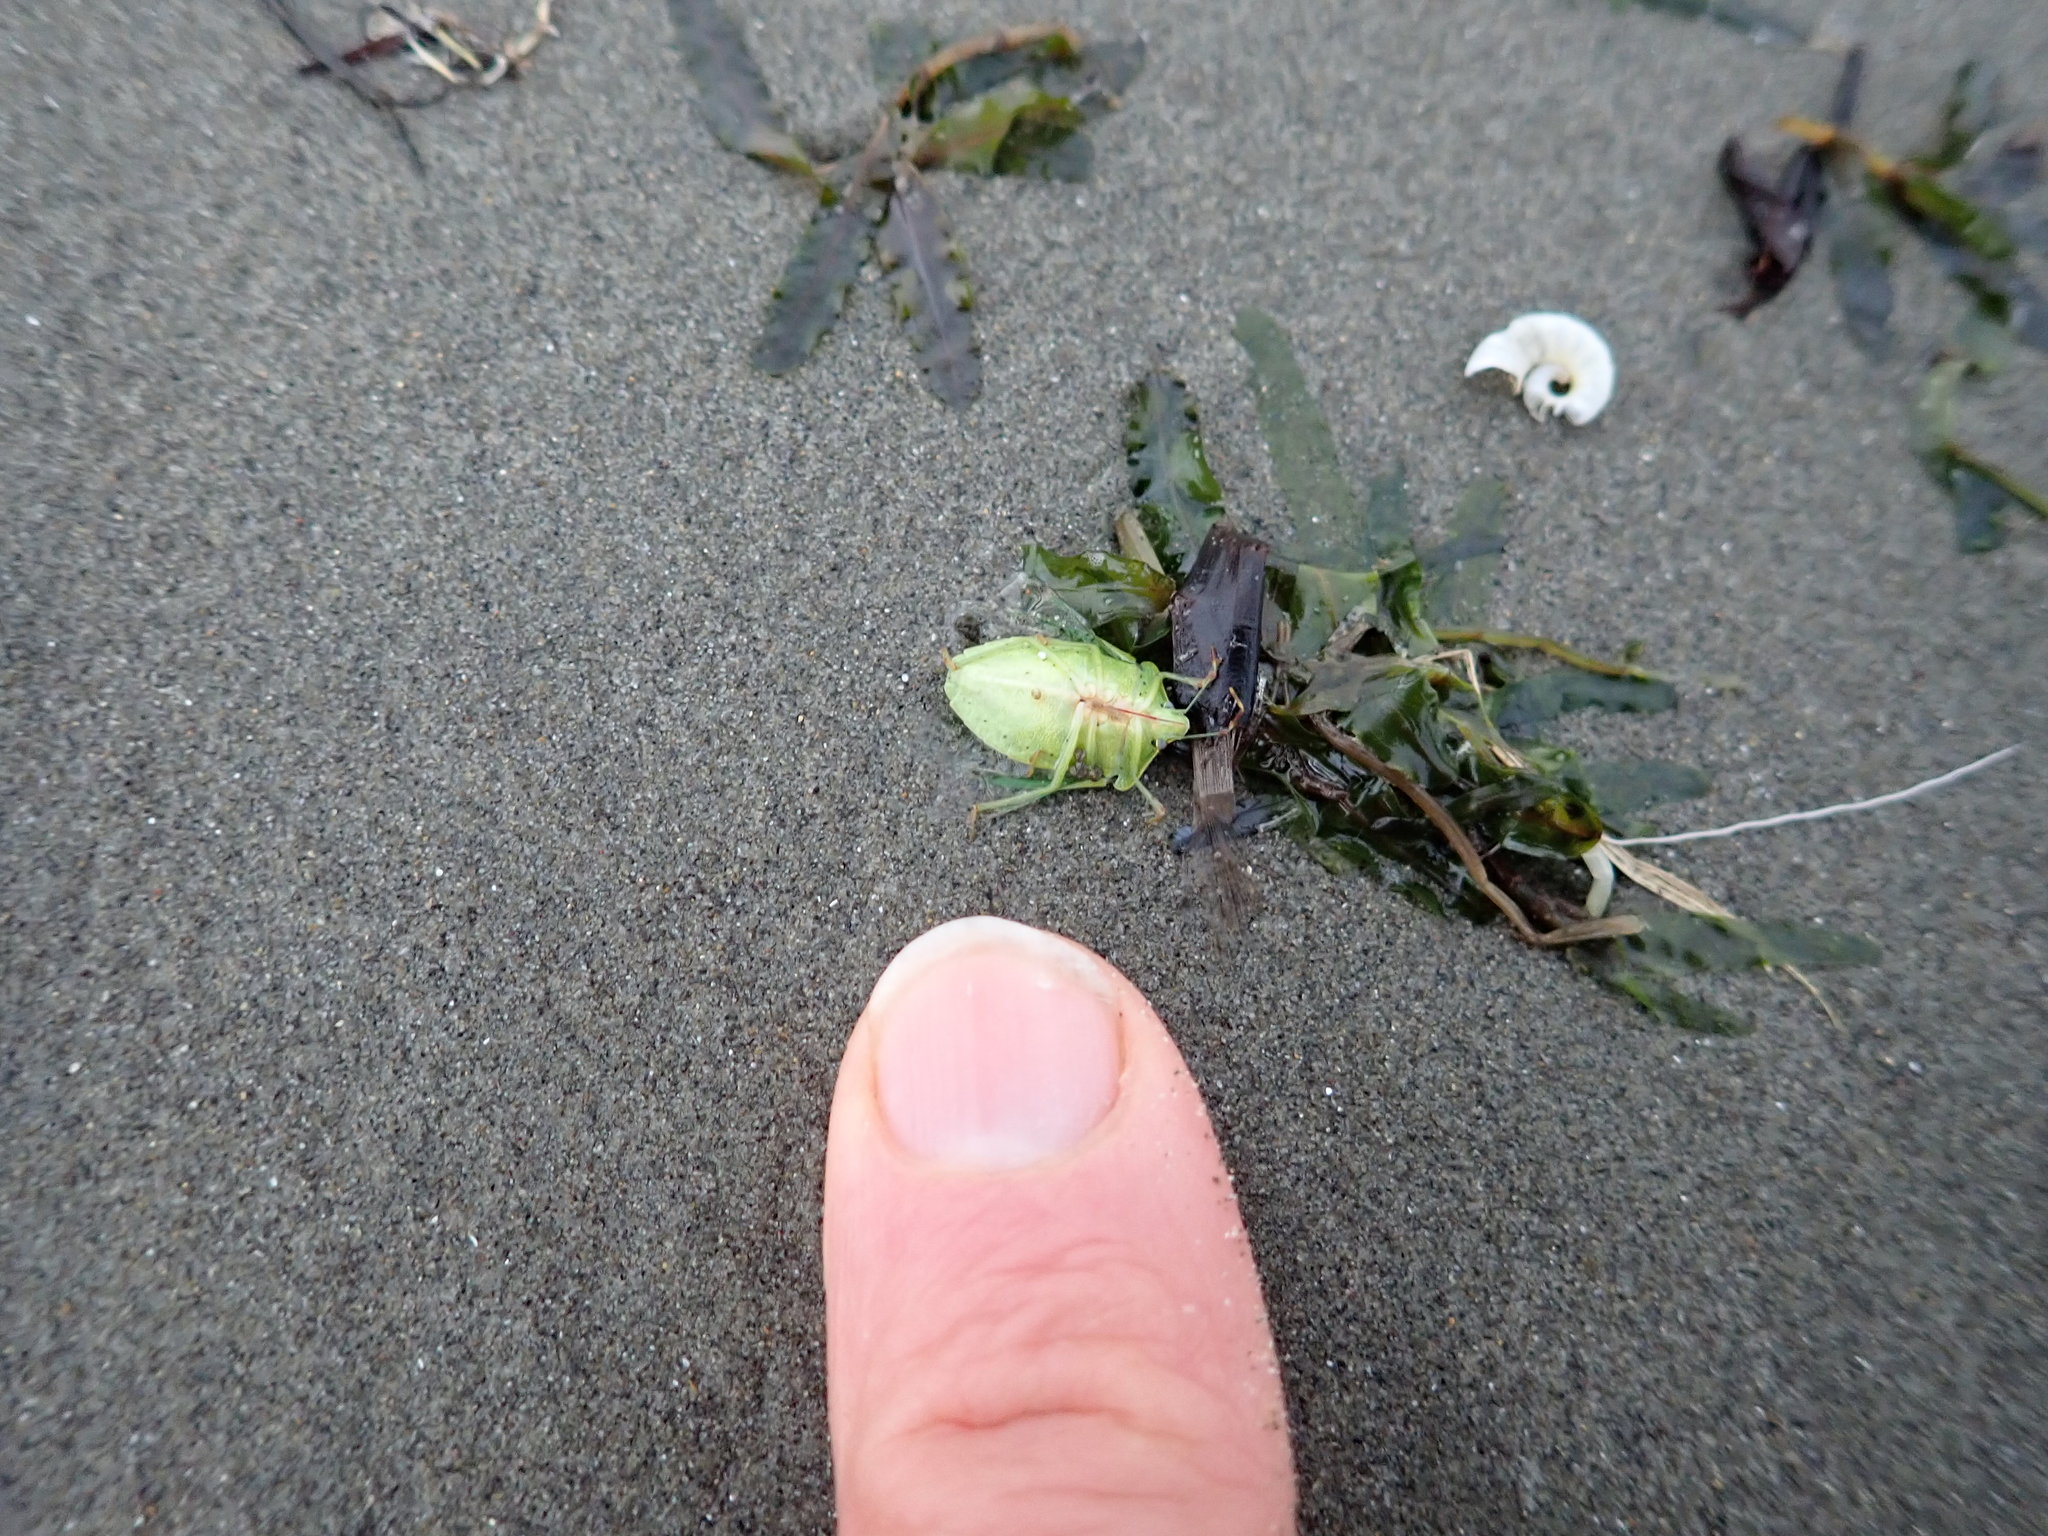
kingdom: Animalia
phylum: Arthropoda
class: Insecta
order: Hemiptera
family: Pentatomidae
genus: Nezara
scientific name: Nezara viridula
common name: Southern green stink bug
